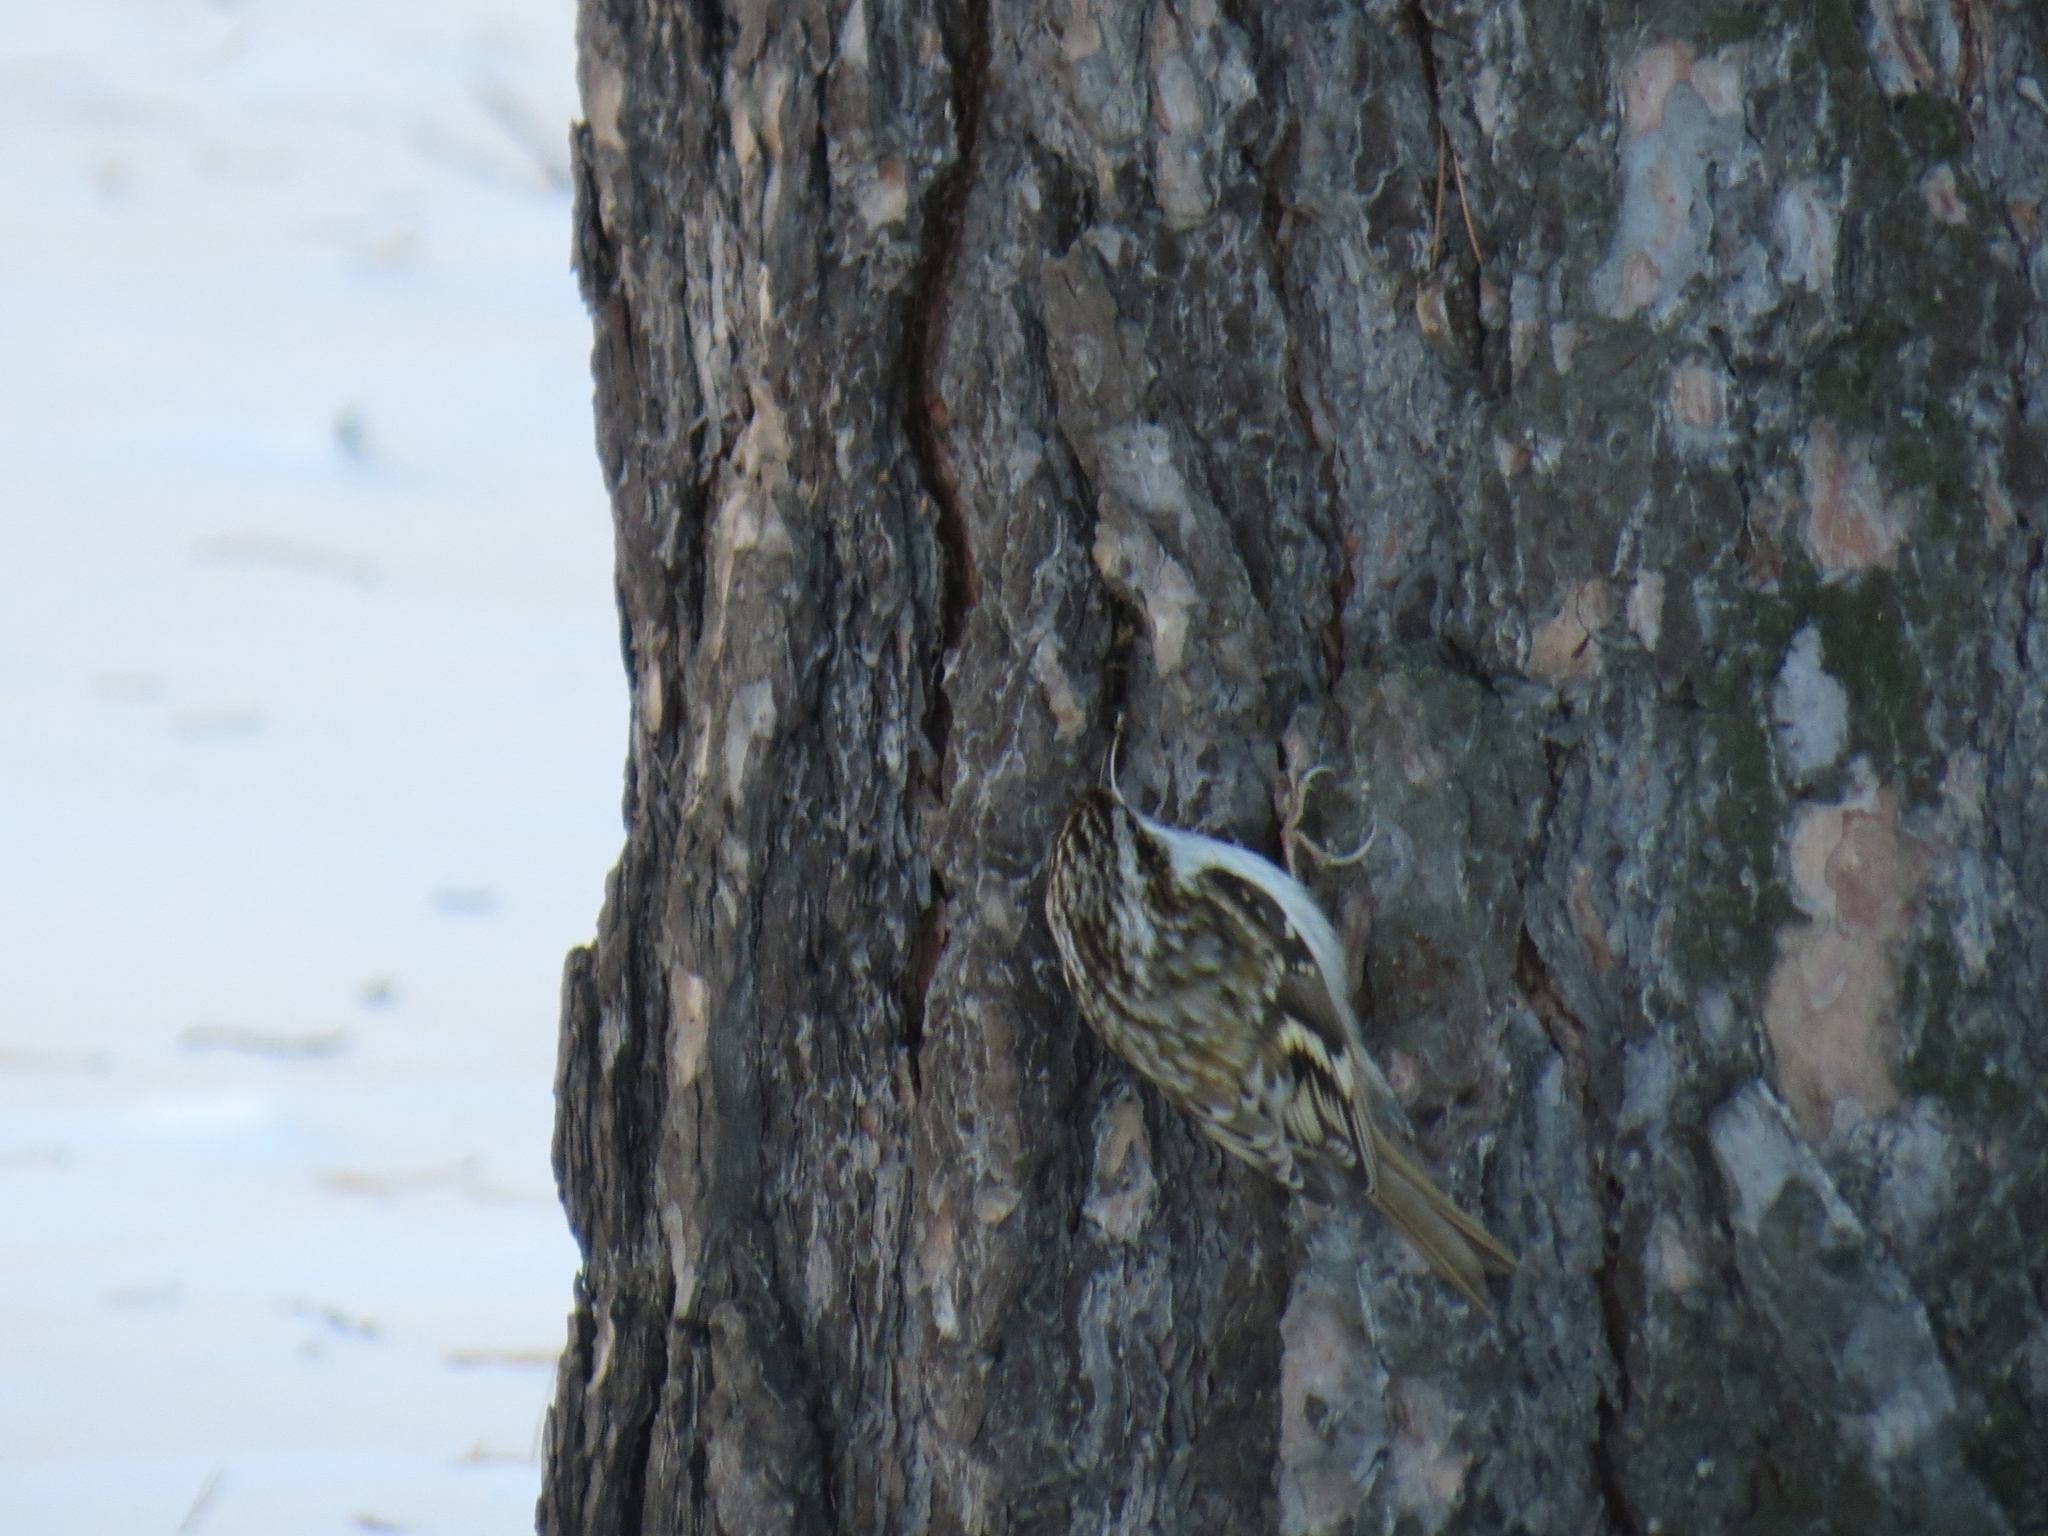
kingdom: Animalia
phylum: Chordata
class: Aves
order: Passeriformes
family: Certhiidae
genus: Certhia
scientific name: Certhia familiaris
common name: Eurasian treecreeper
